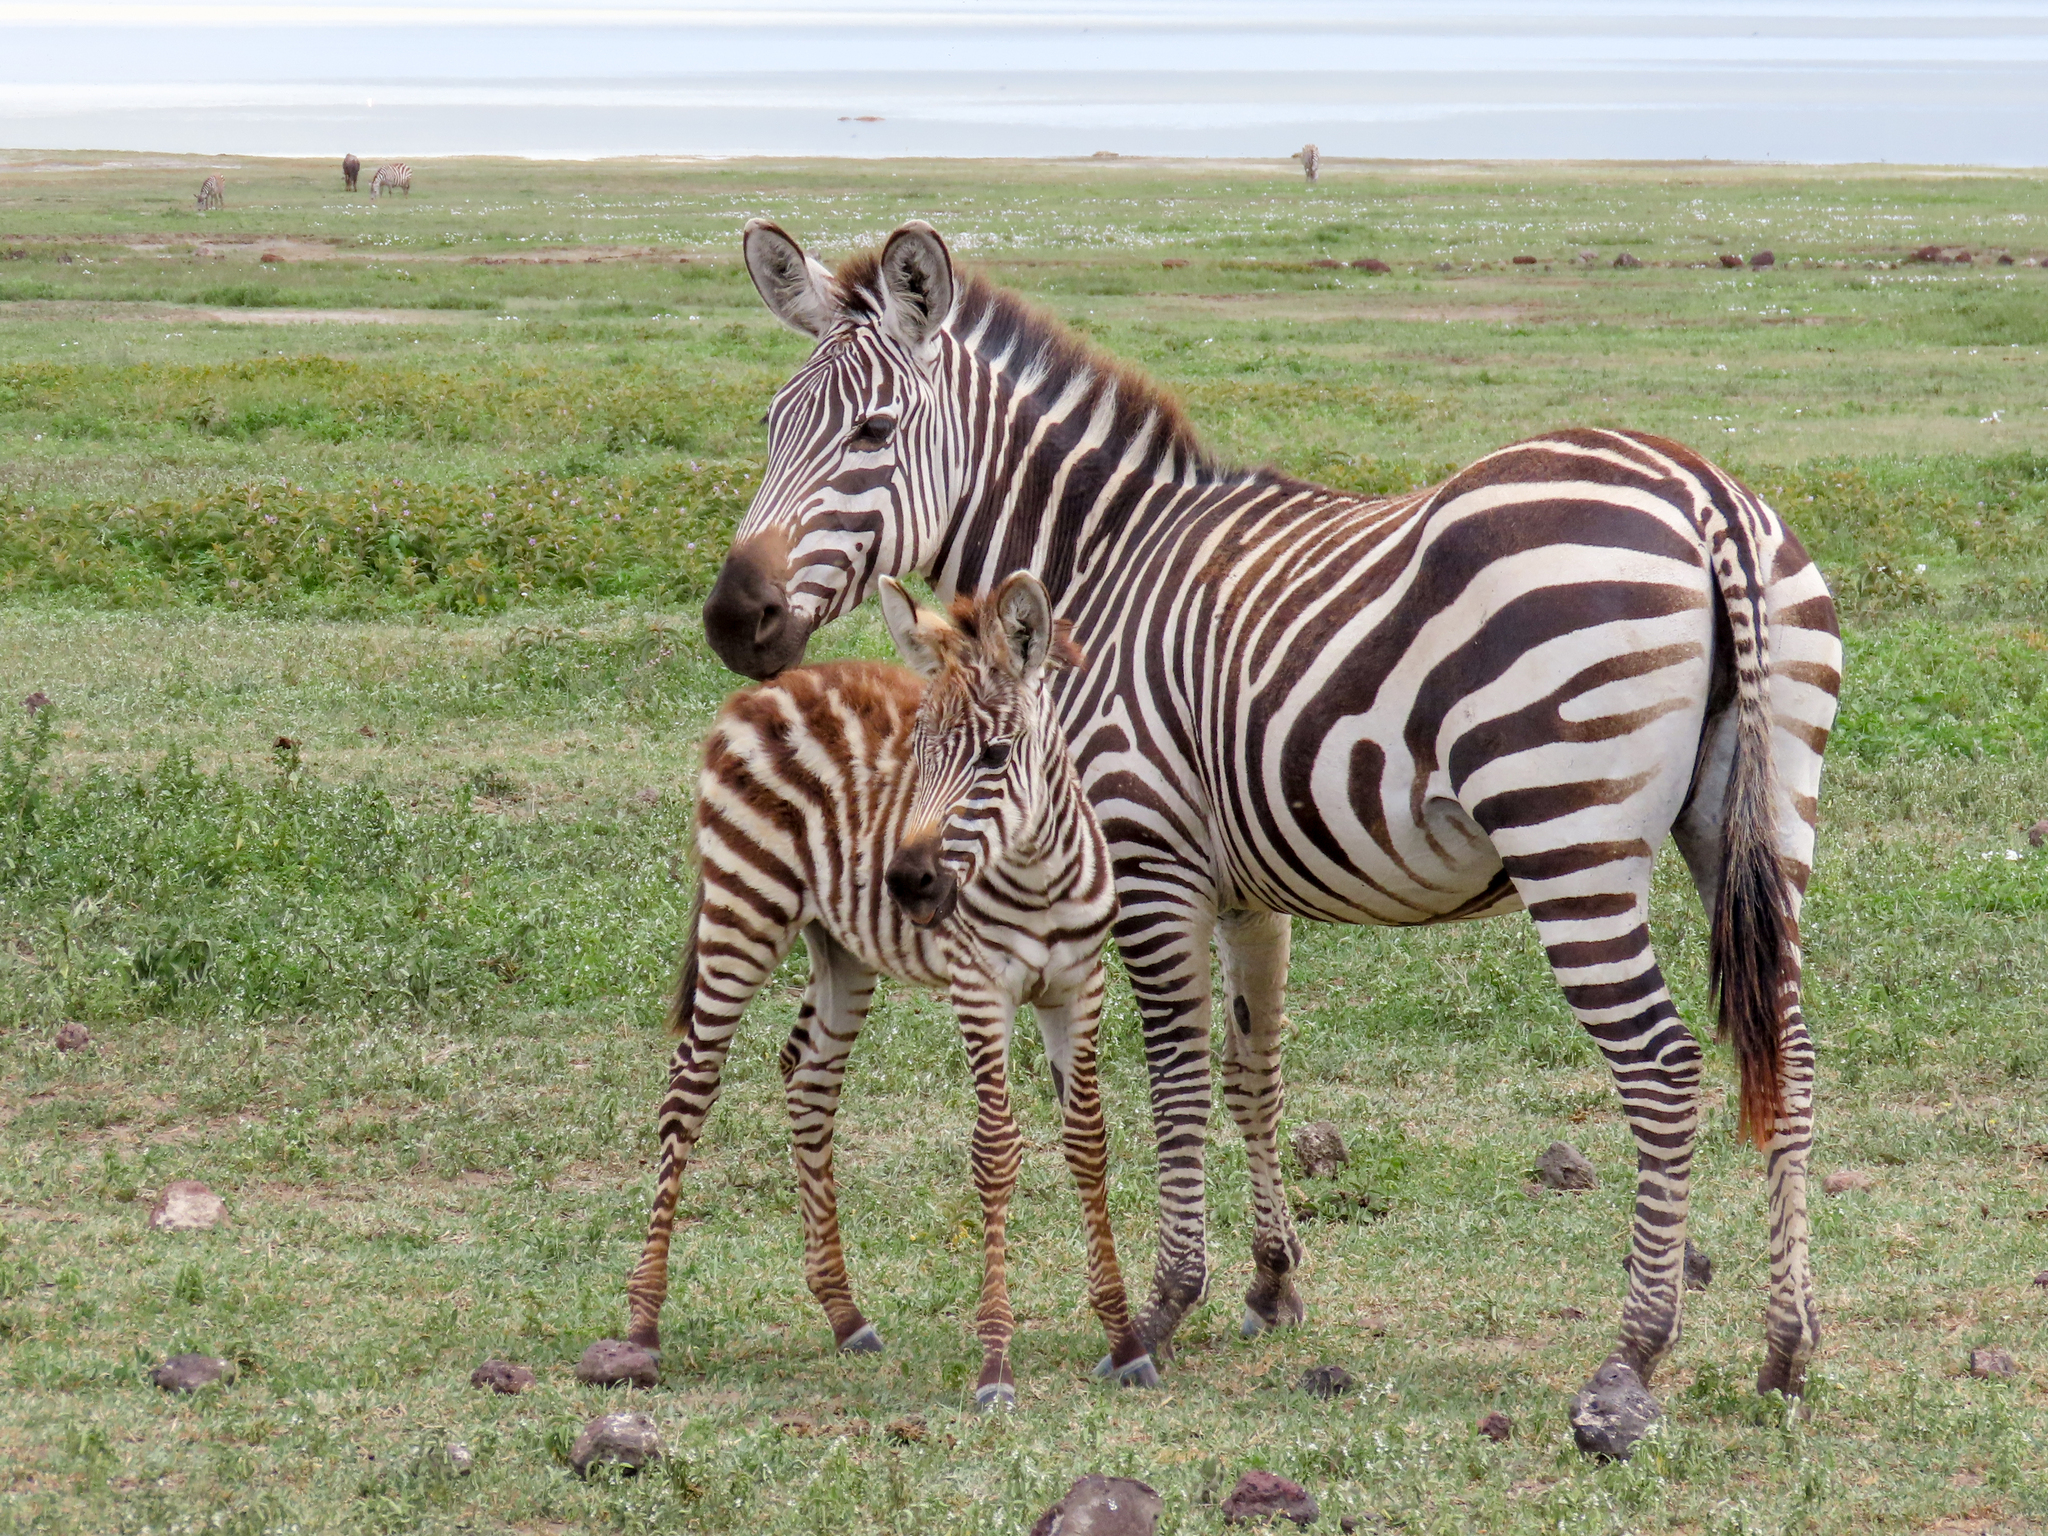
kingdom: Animalia
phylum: Chordata
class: Mammalia
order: Perissodactyla
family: Equidae
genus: Equus
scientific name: Equus quagga
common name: Plains zebra
